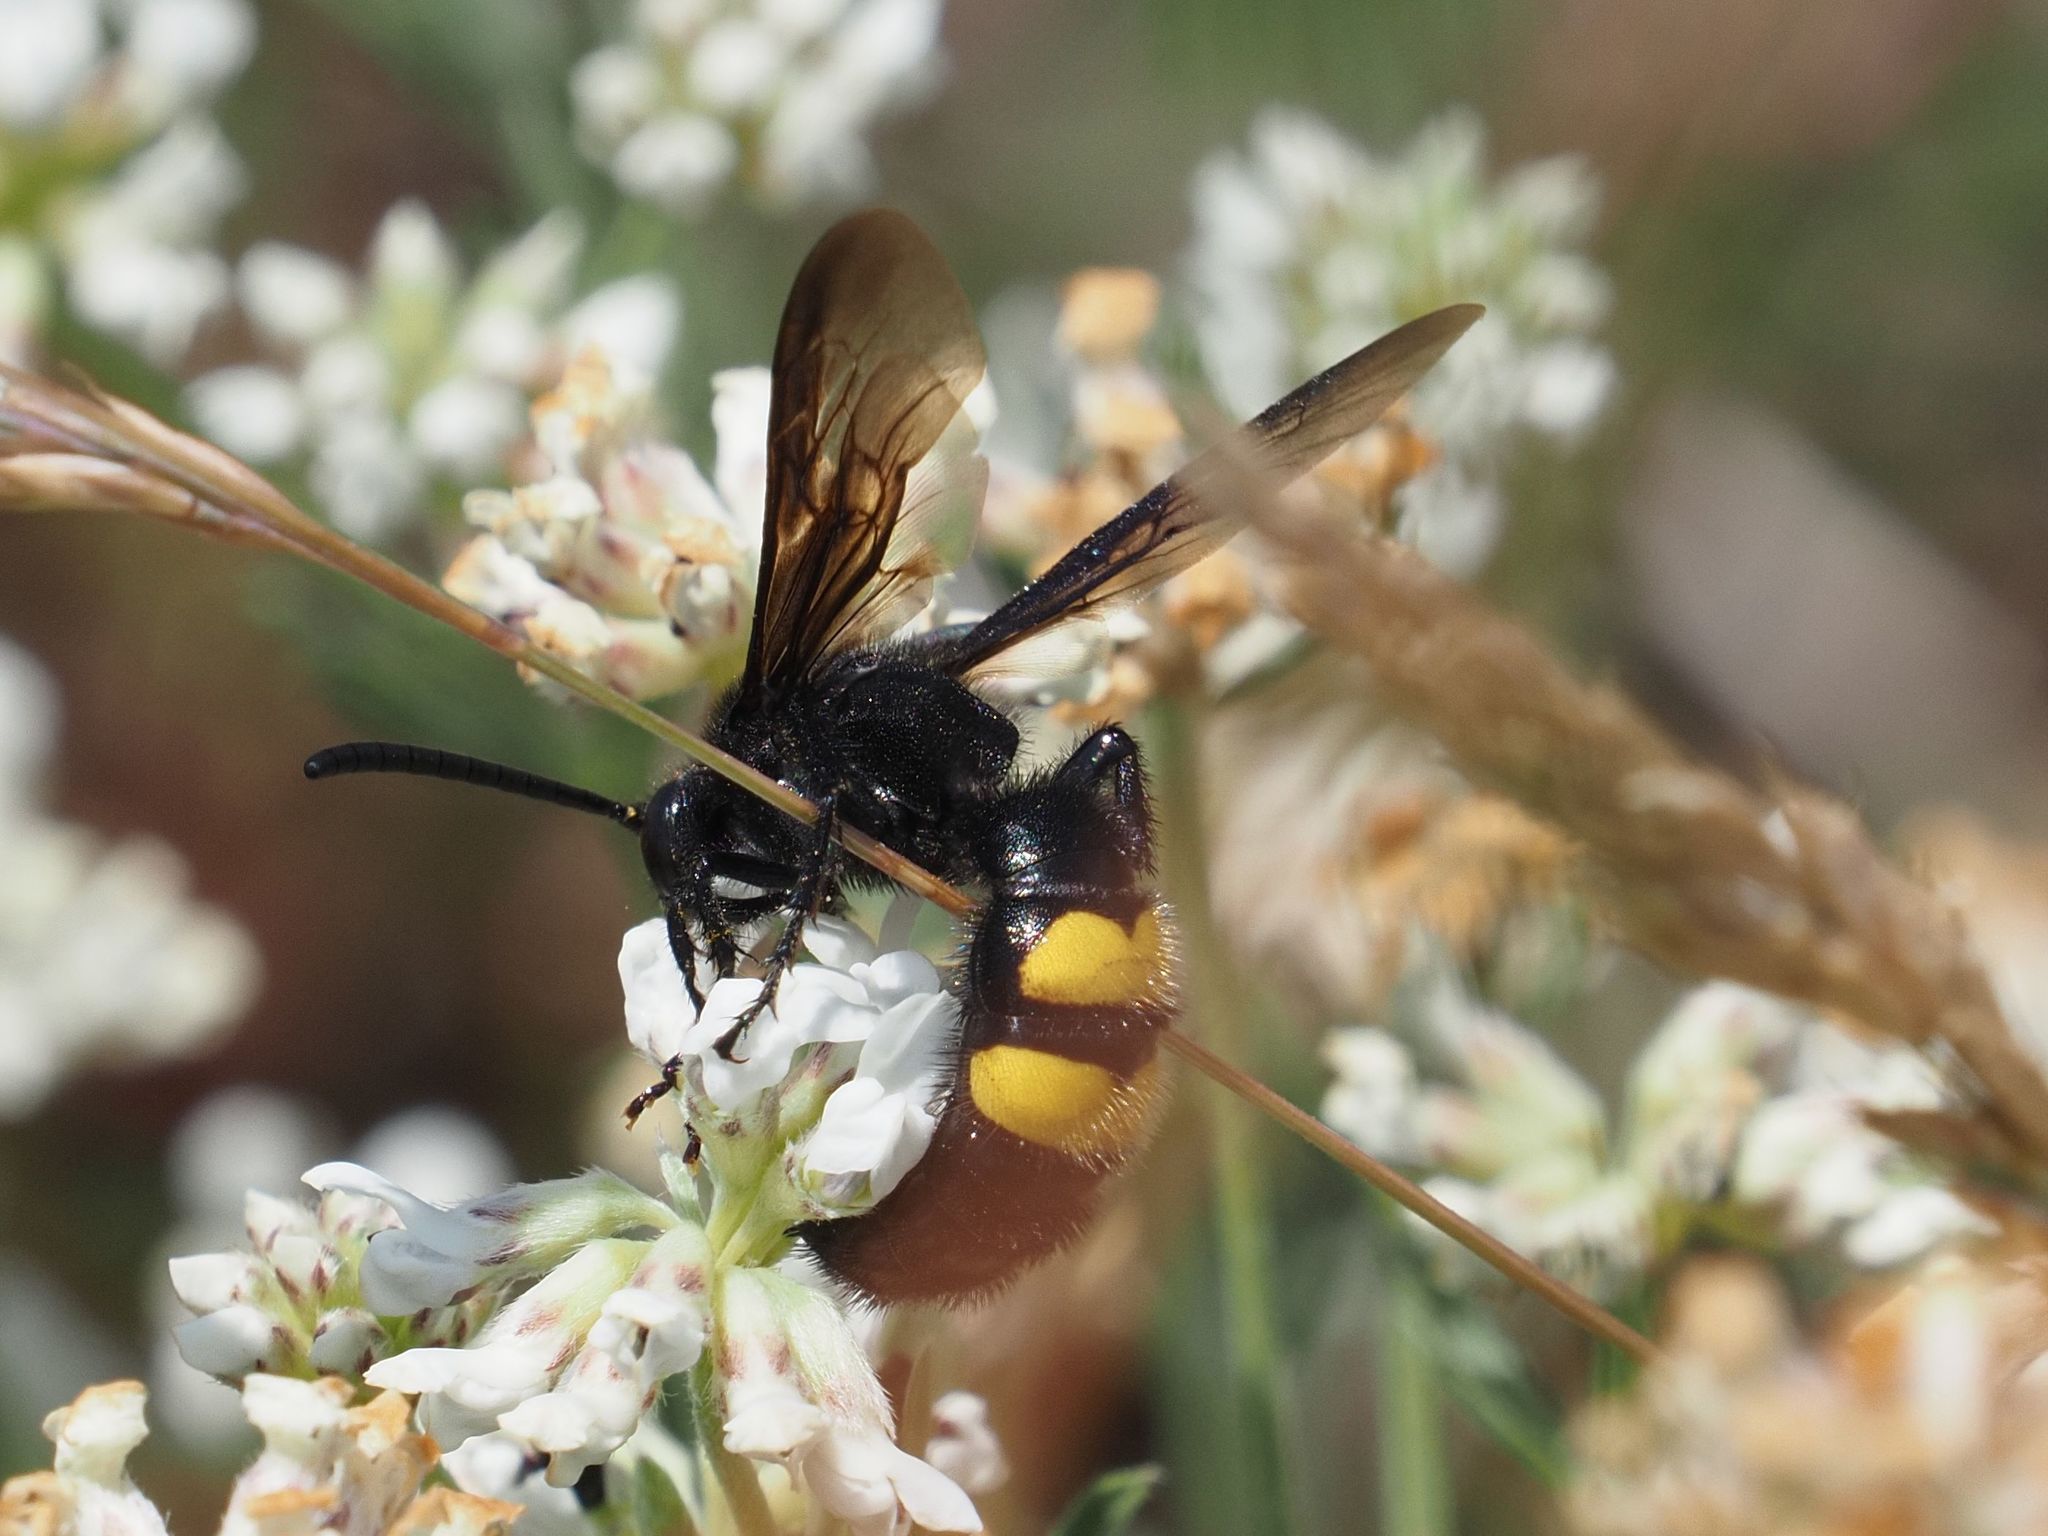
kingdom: Animalia
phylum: Arthropoda
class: Insecta
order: Hymenoptera
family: Scoliidae
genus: Scolia
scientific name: Scolia hirta
